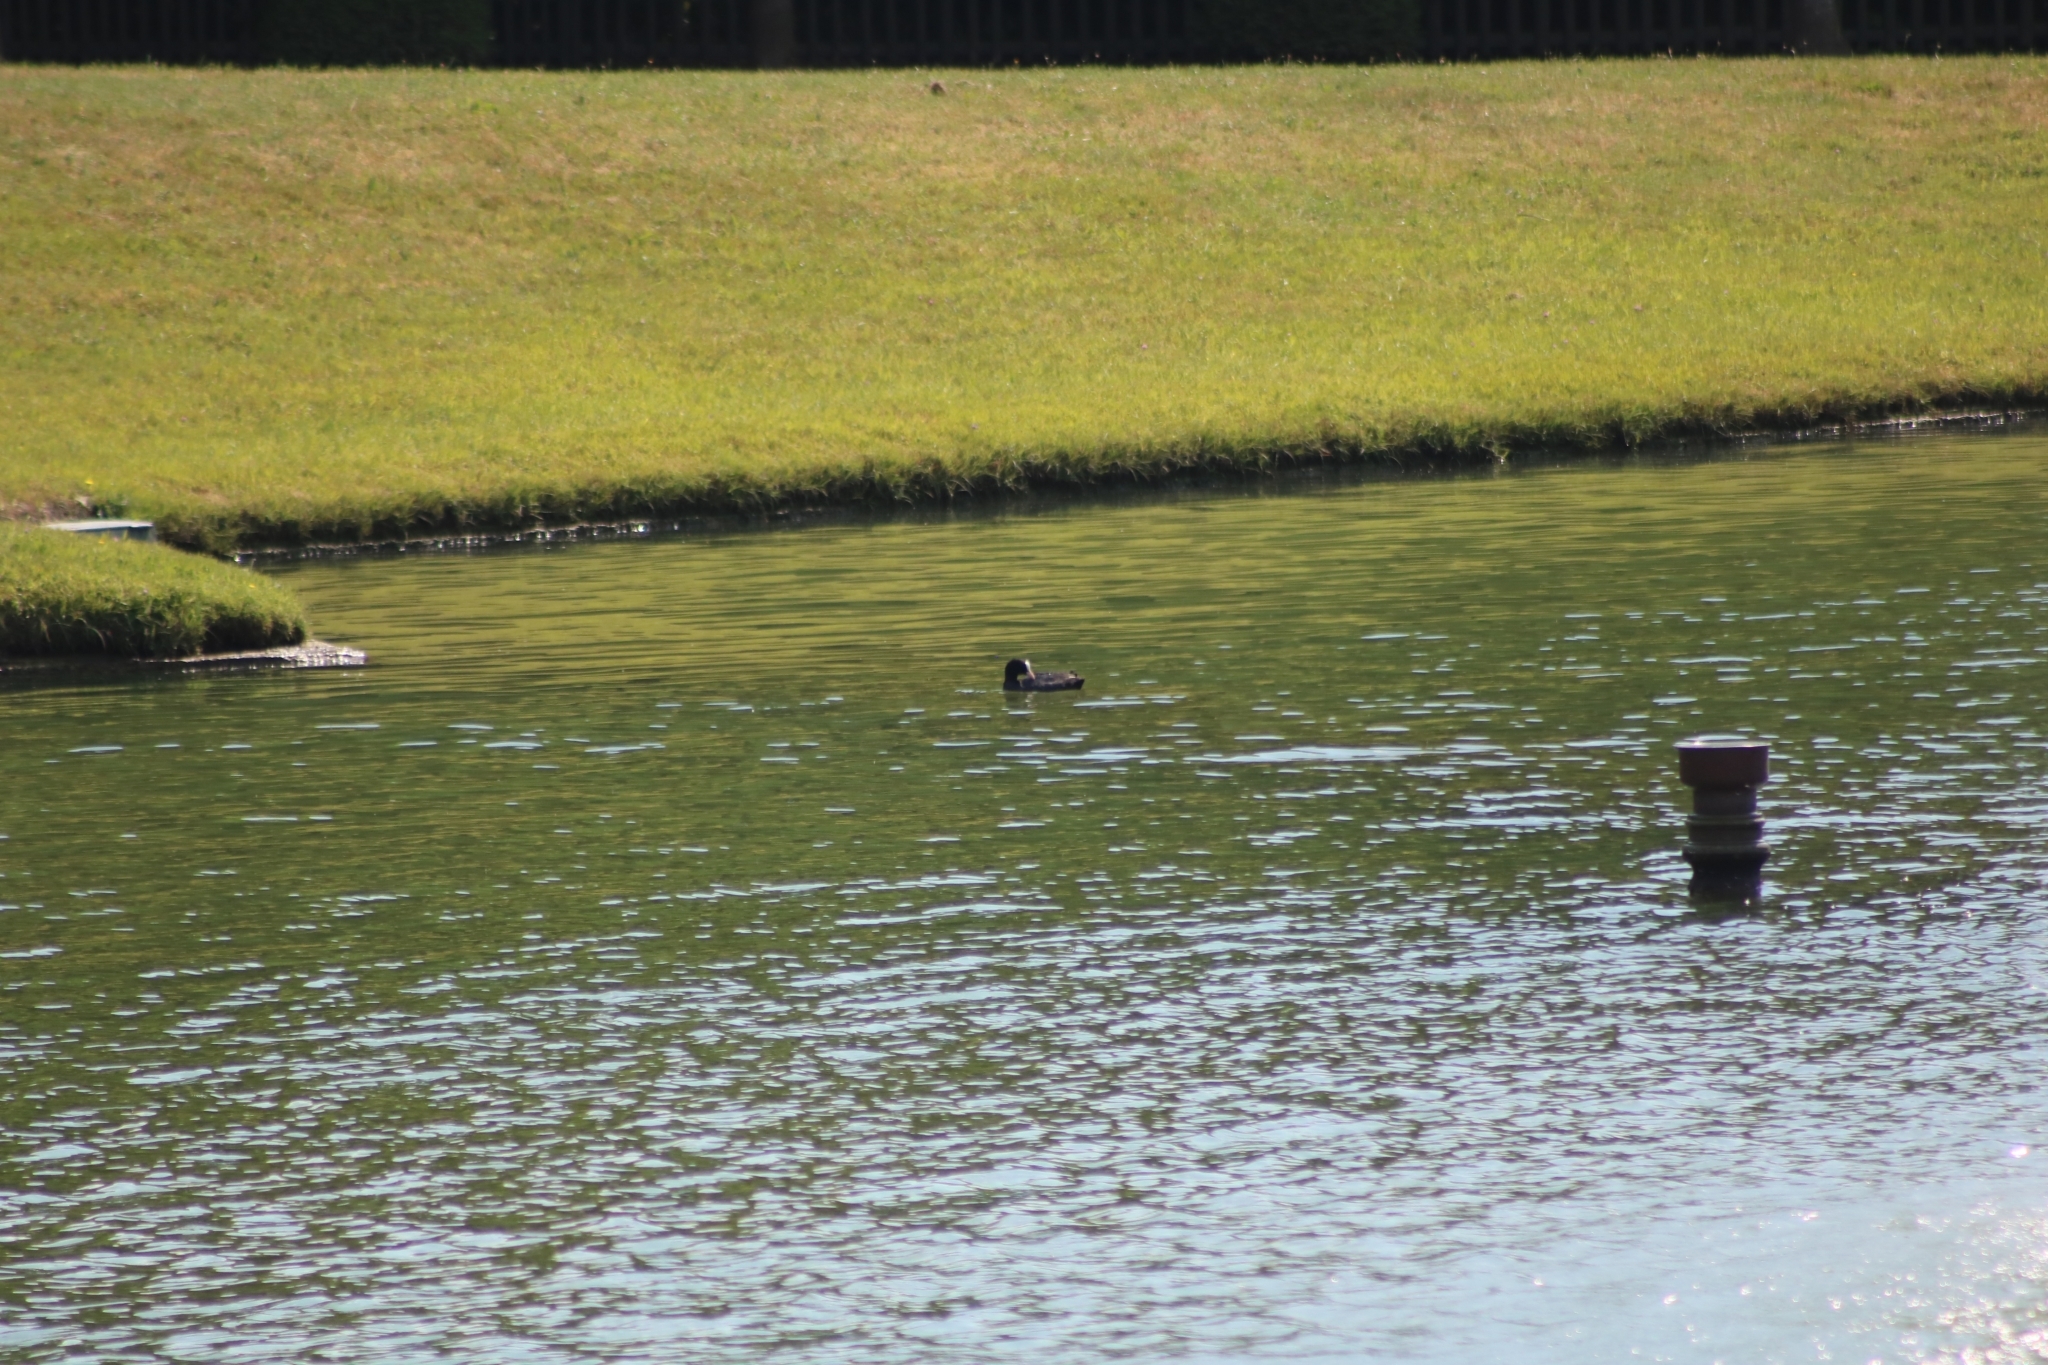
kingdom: Animalia
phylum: Chordata
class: Aves
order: Gruiformes
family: Rallidae
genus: Fulica
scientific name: Fulica atra
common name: Eurasian coot
